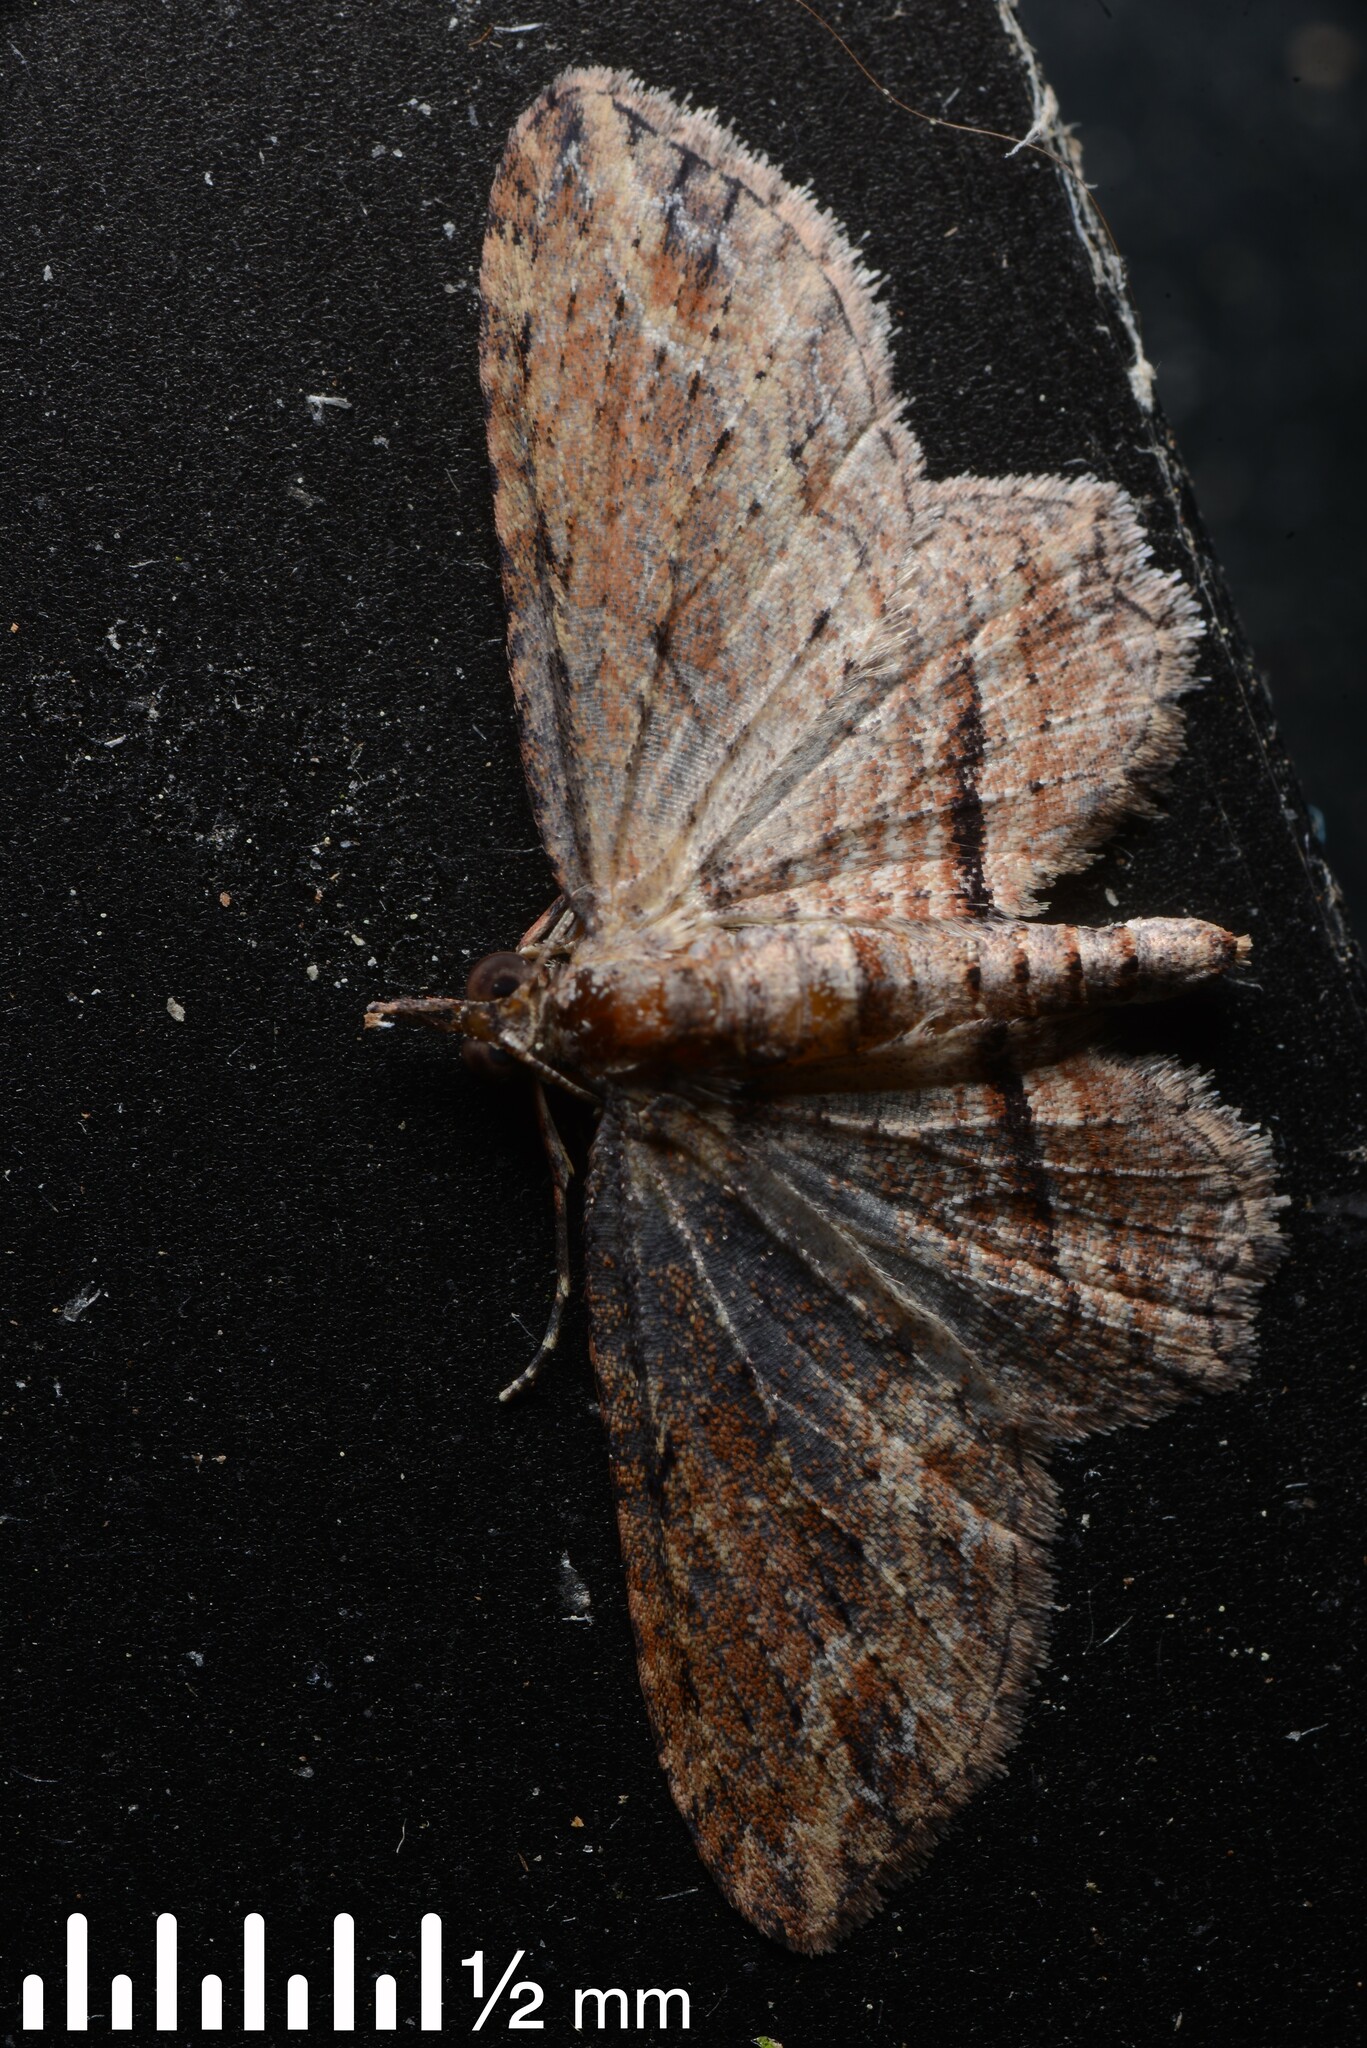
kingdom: Animalia
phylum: Arthropoda
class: Insecta
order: Lepidoptera
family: Geometridae
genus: Chloroclystis
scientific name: Chloroclystis filata
